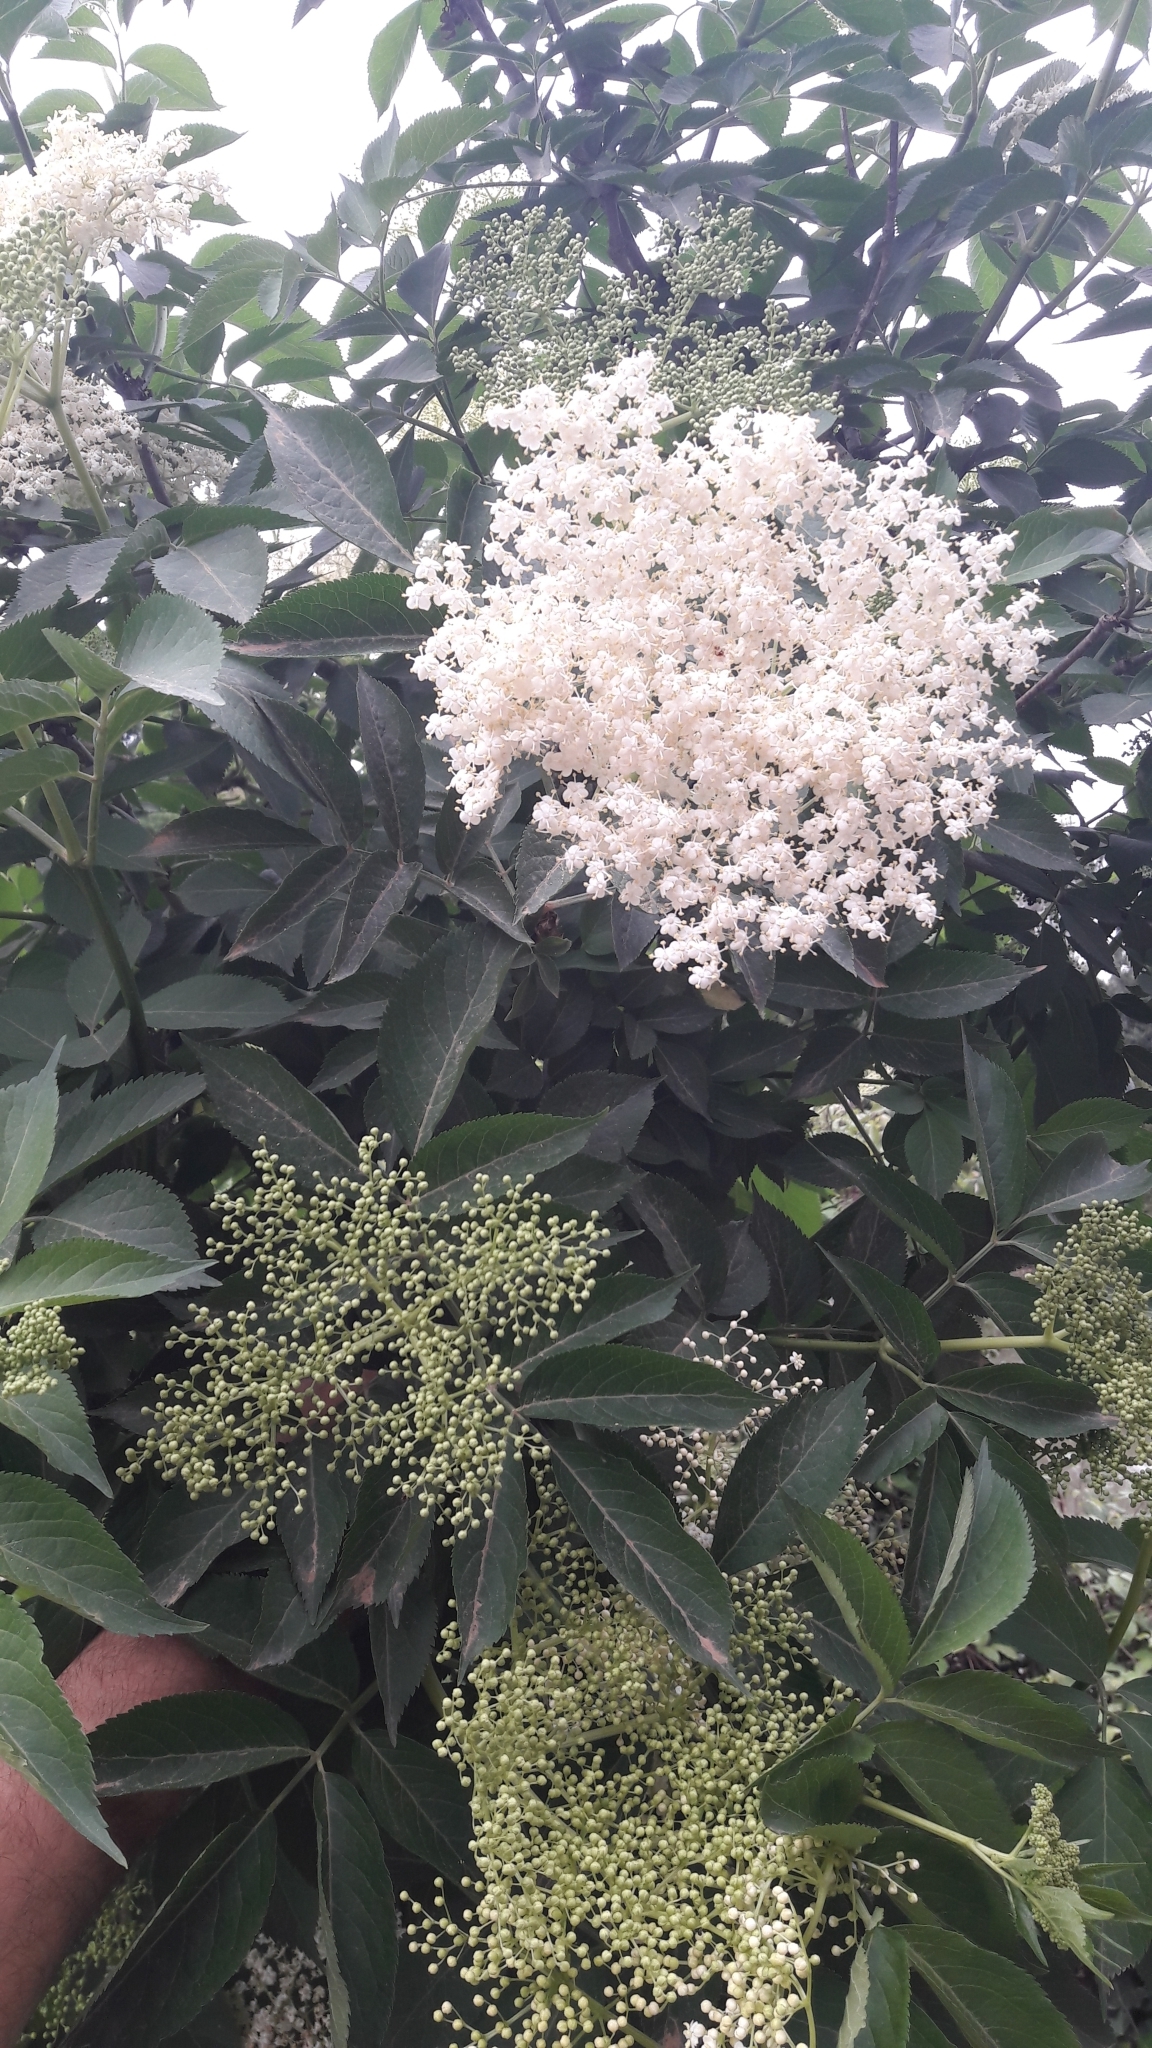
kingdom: Plantae
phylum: Tracheophyta
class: Magnoliopsida
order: Dipsacales
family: Viburnaceae
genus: Sambucus
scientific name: Sambucus nigra
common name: Elder
